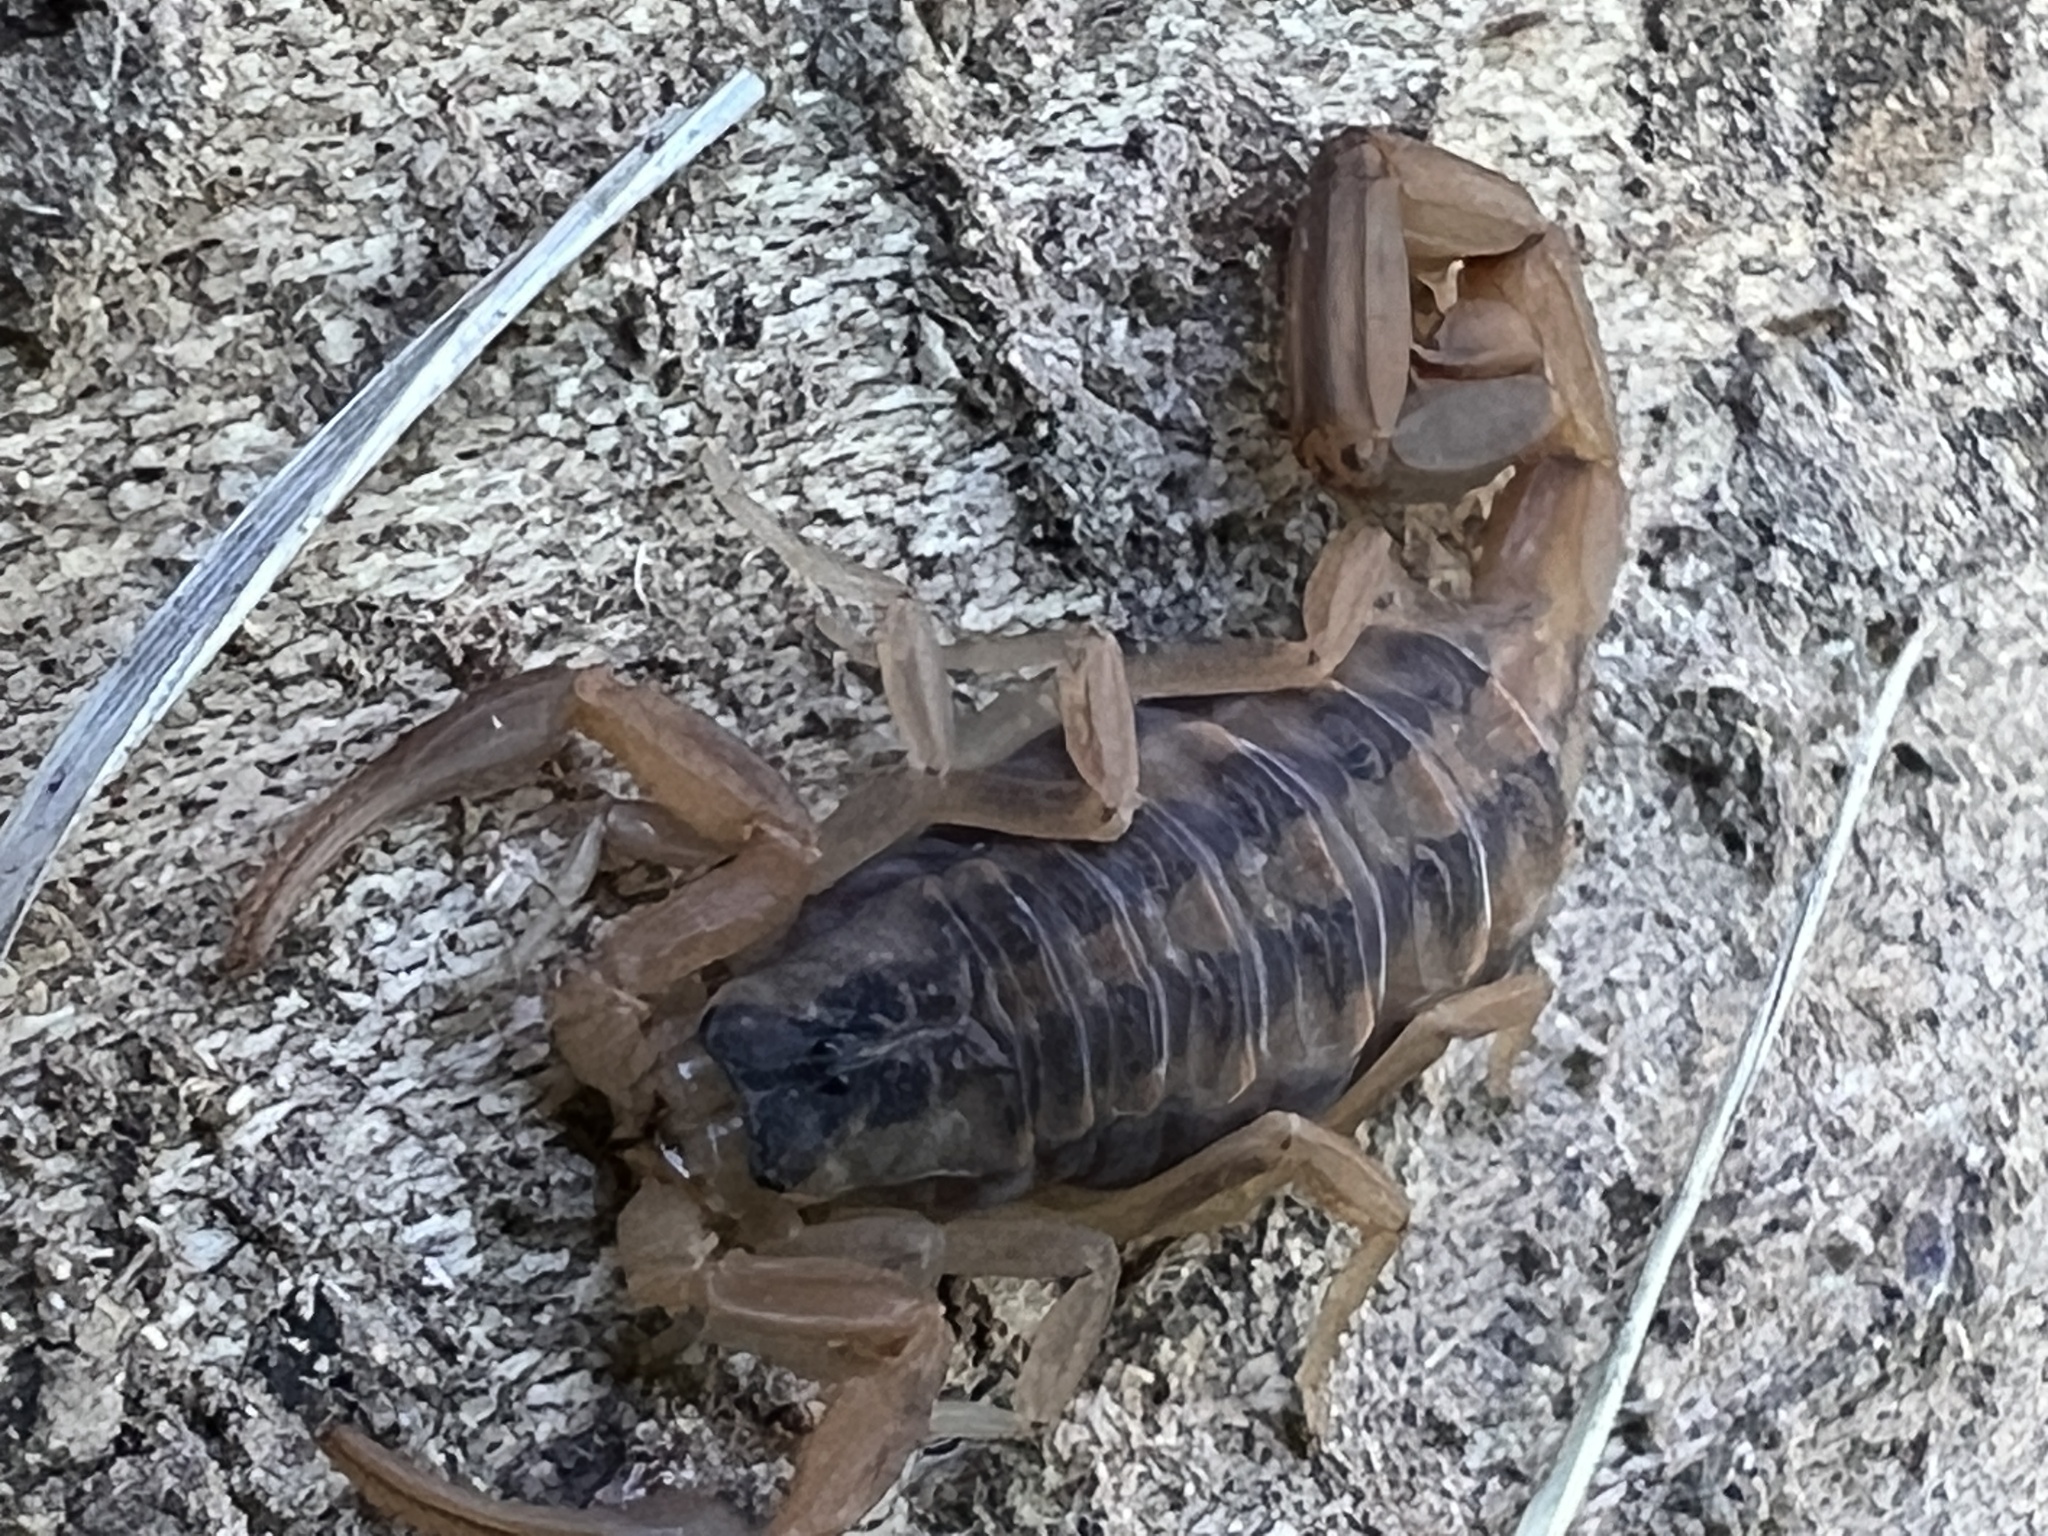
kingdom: Animalia
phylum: Arthropoda
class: Arachnida
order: Scorpiones
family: Buthidae
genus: Centruroides
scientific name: Centruroides vittatus
